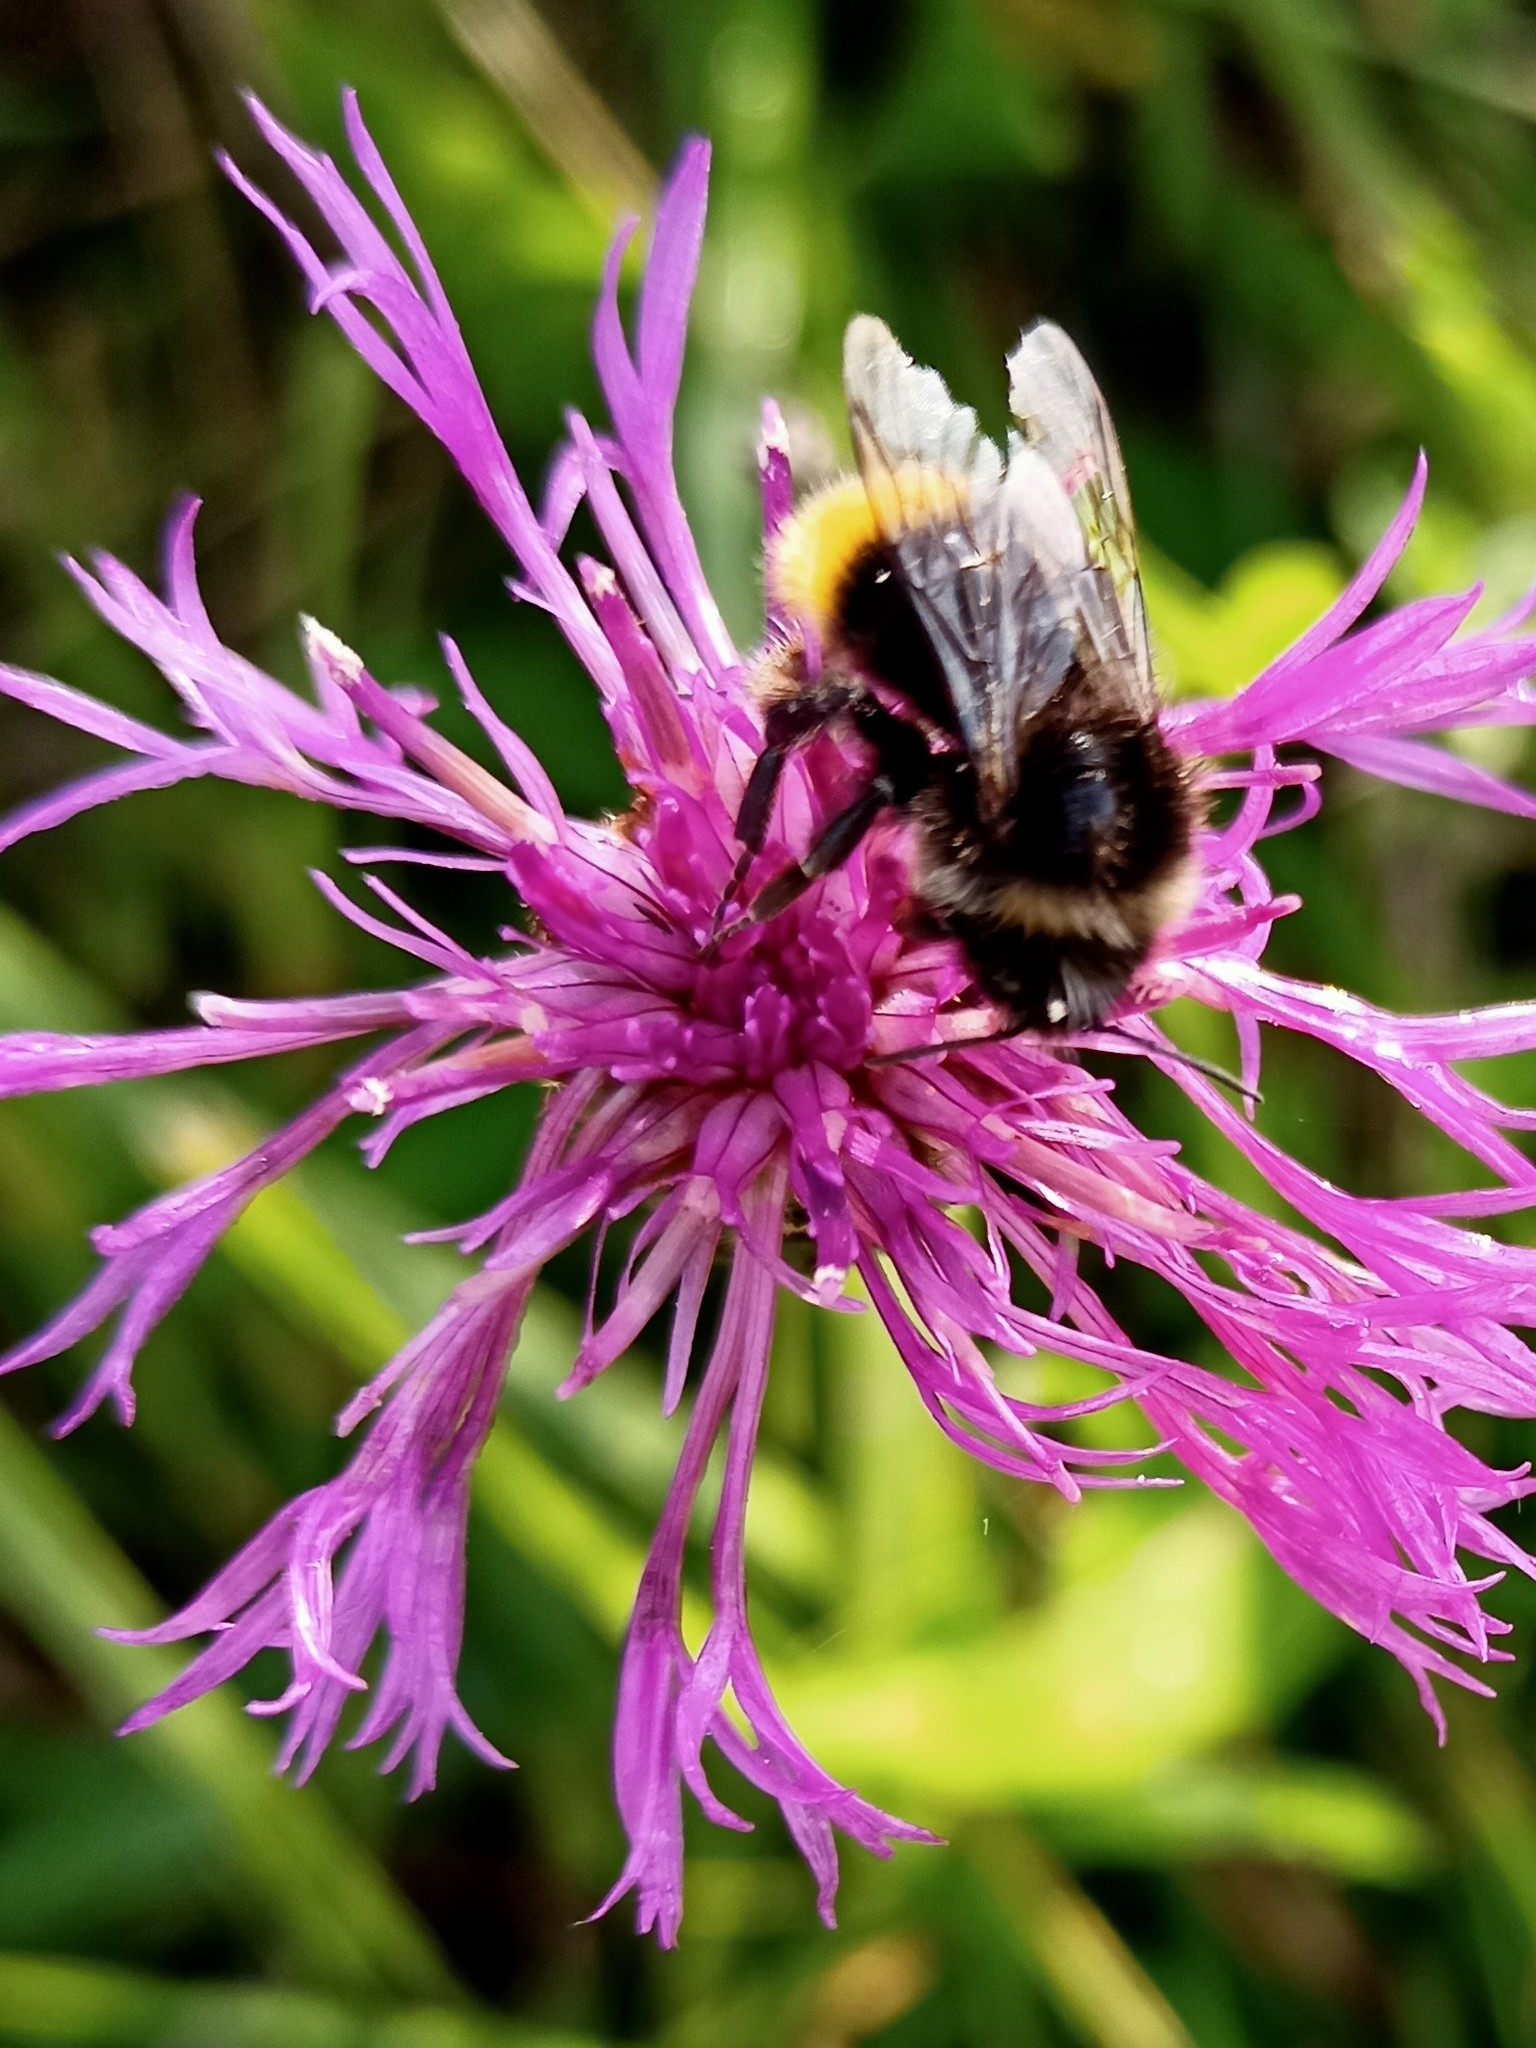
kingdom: Animalia
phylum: Arthropoda
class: Insecta
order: Hymenoptera
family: Apidae
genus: Bombus
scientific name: Bombus lapidarius
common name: Large red-tailed humble-bee
